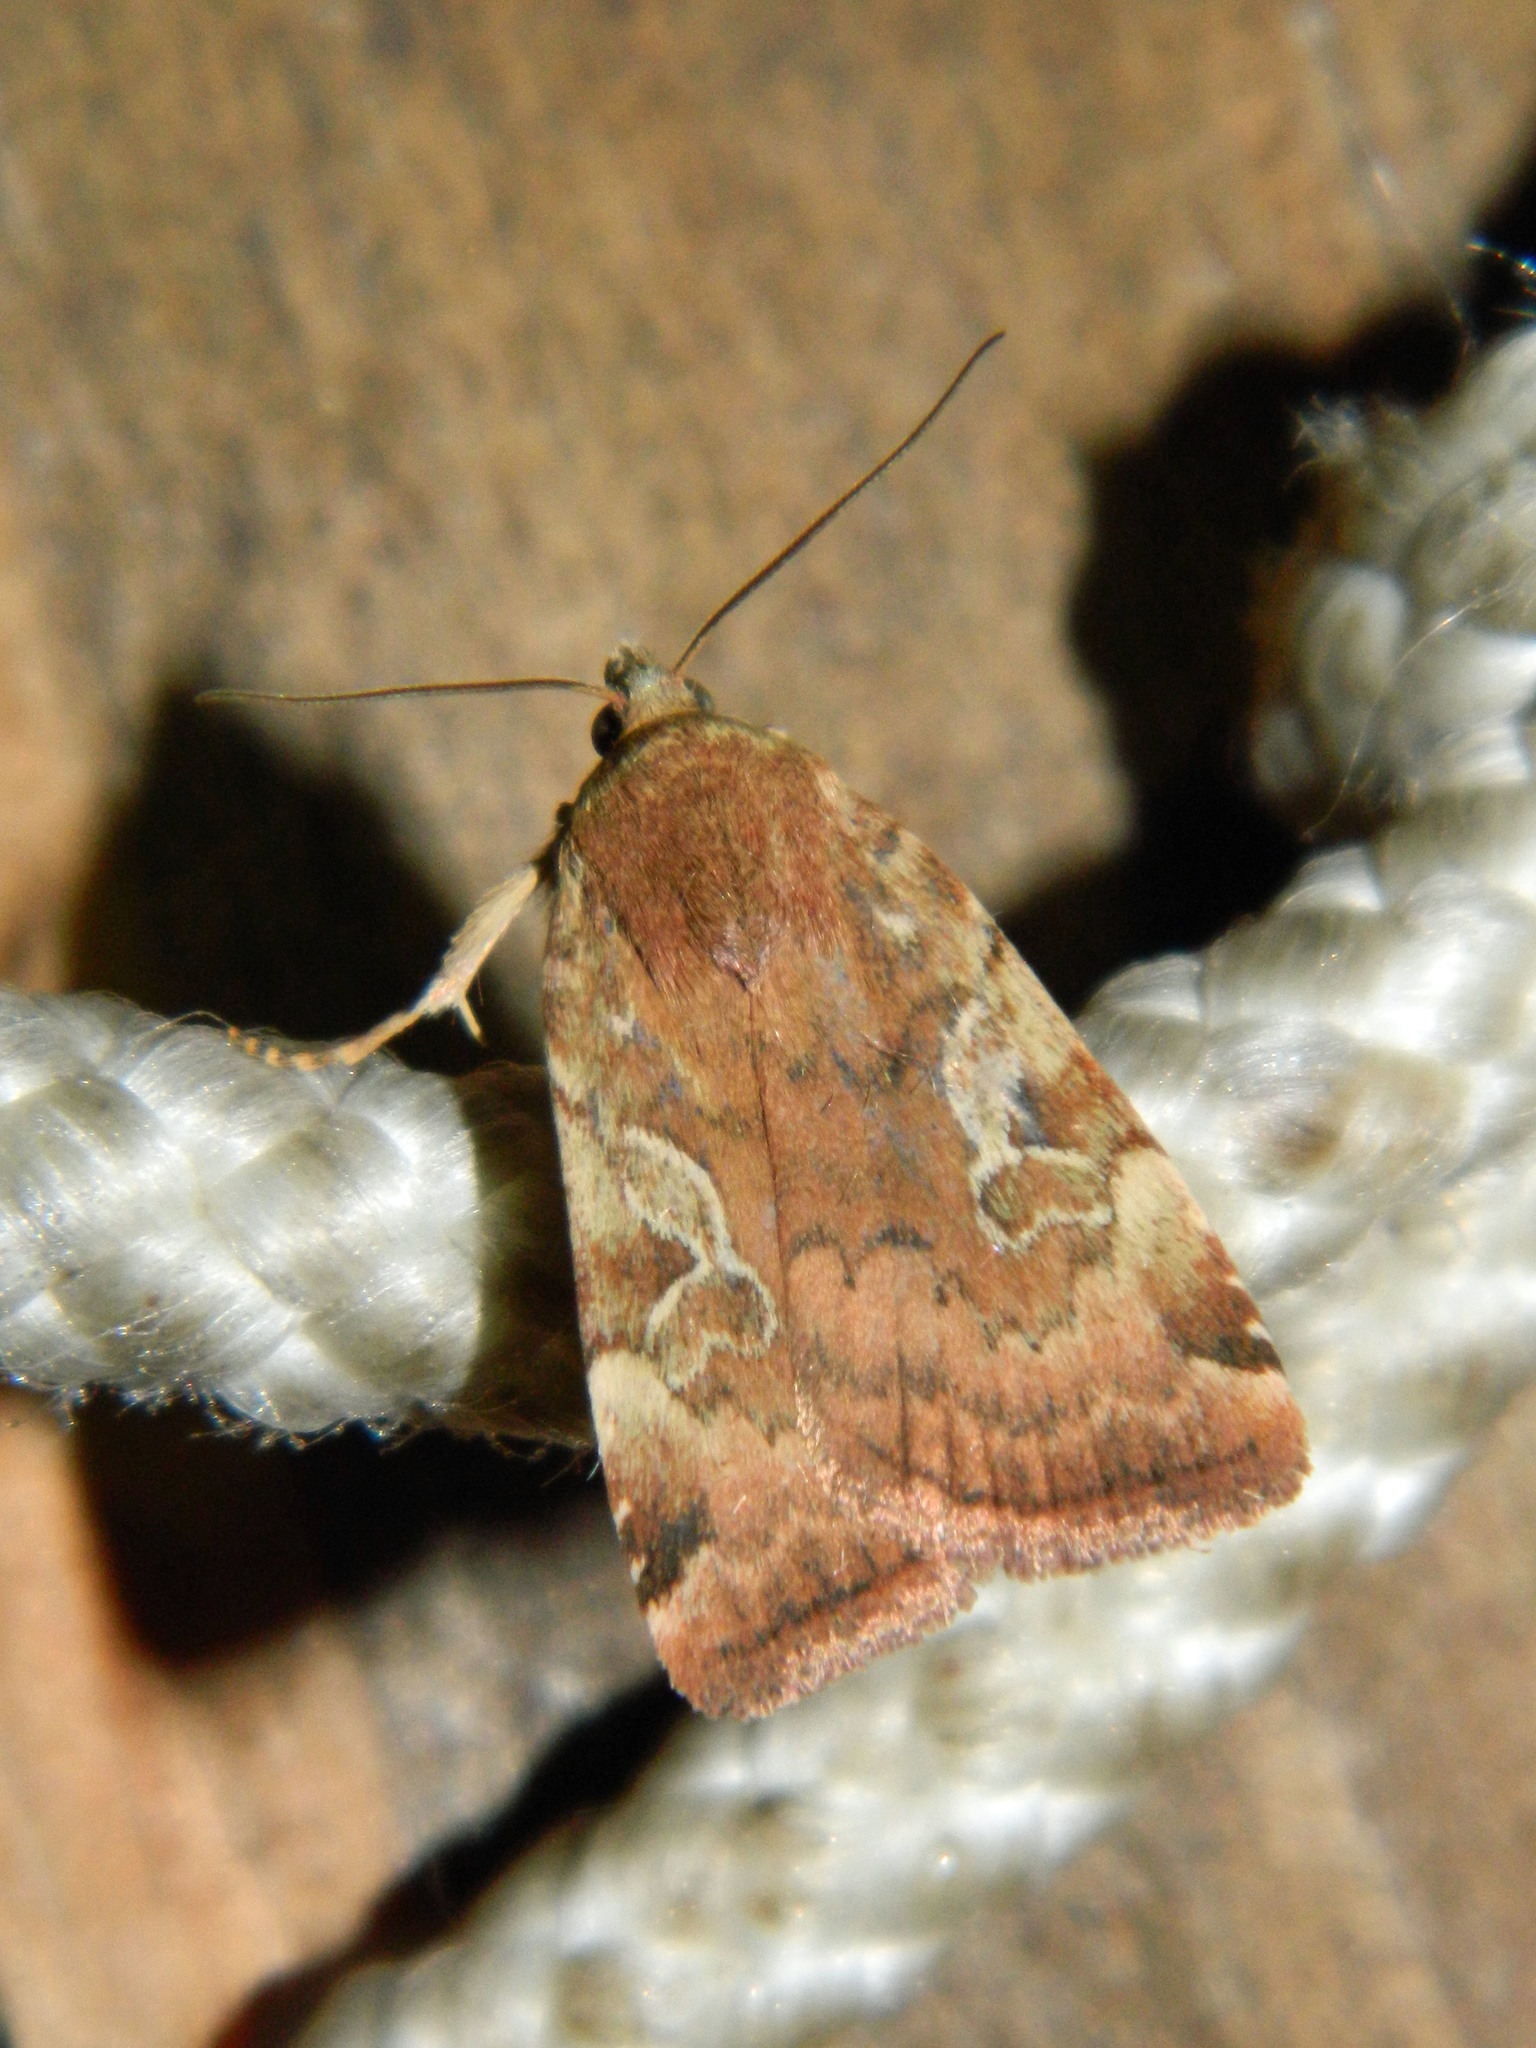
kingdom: Animalia
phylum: Arthropoda
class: Insecta
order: Lepidoptera
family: Noctuidae
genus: Cryptocala
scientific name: Cryptocala acadiensis
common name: Catocaline dart
